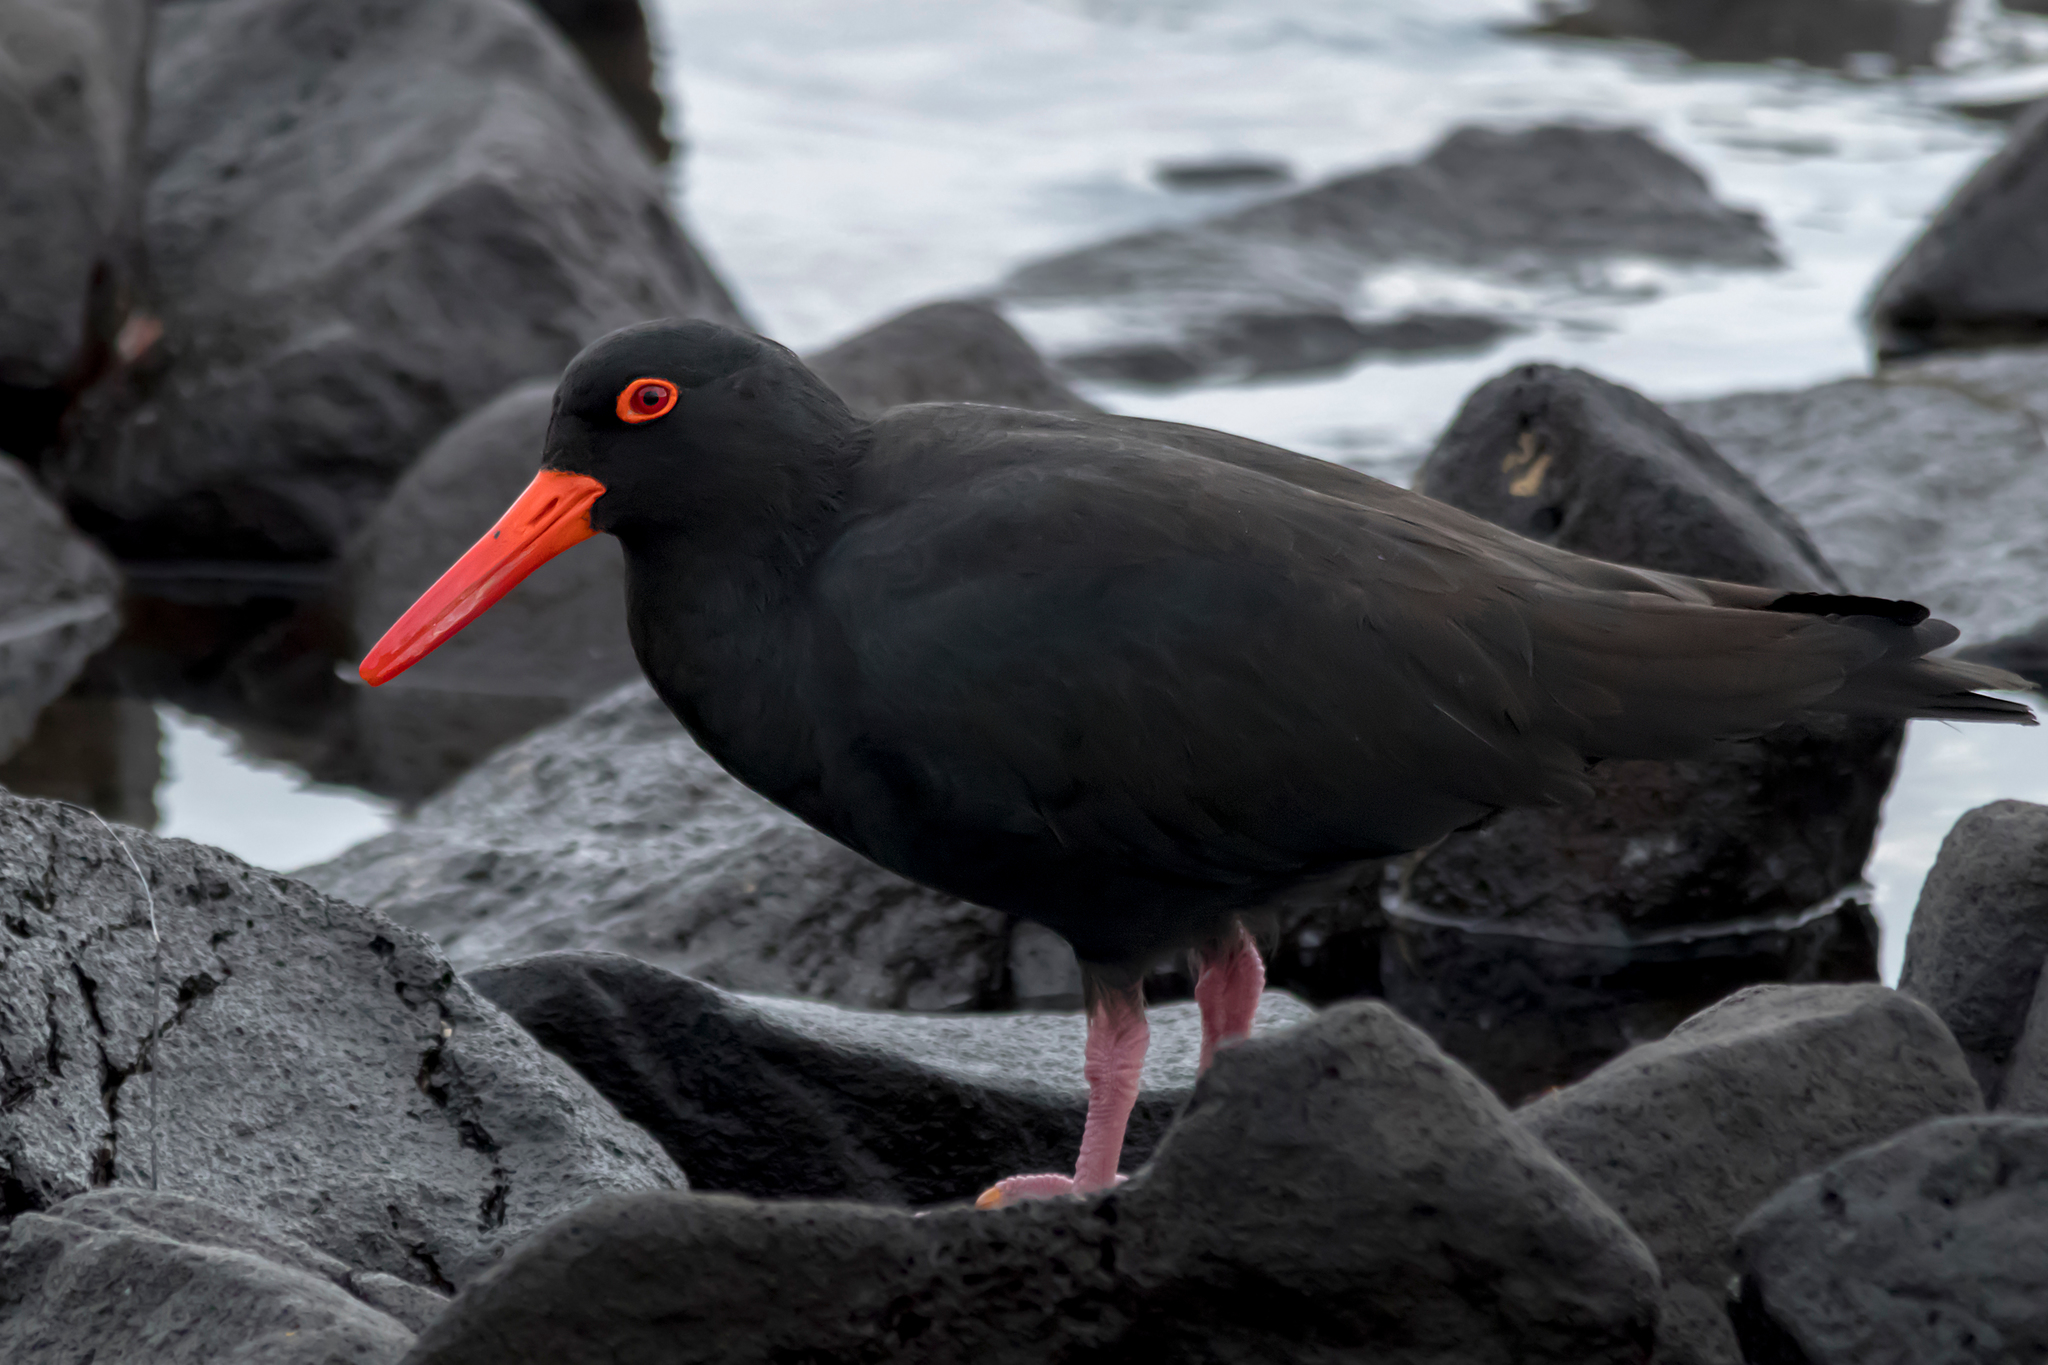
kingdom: Animalia
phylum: Chordata
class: Aves
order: Charadriiformes
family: Haematopodidae
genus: Haematopus
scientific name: Haematopus fuliginosus
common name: Sooty oystercatcher
